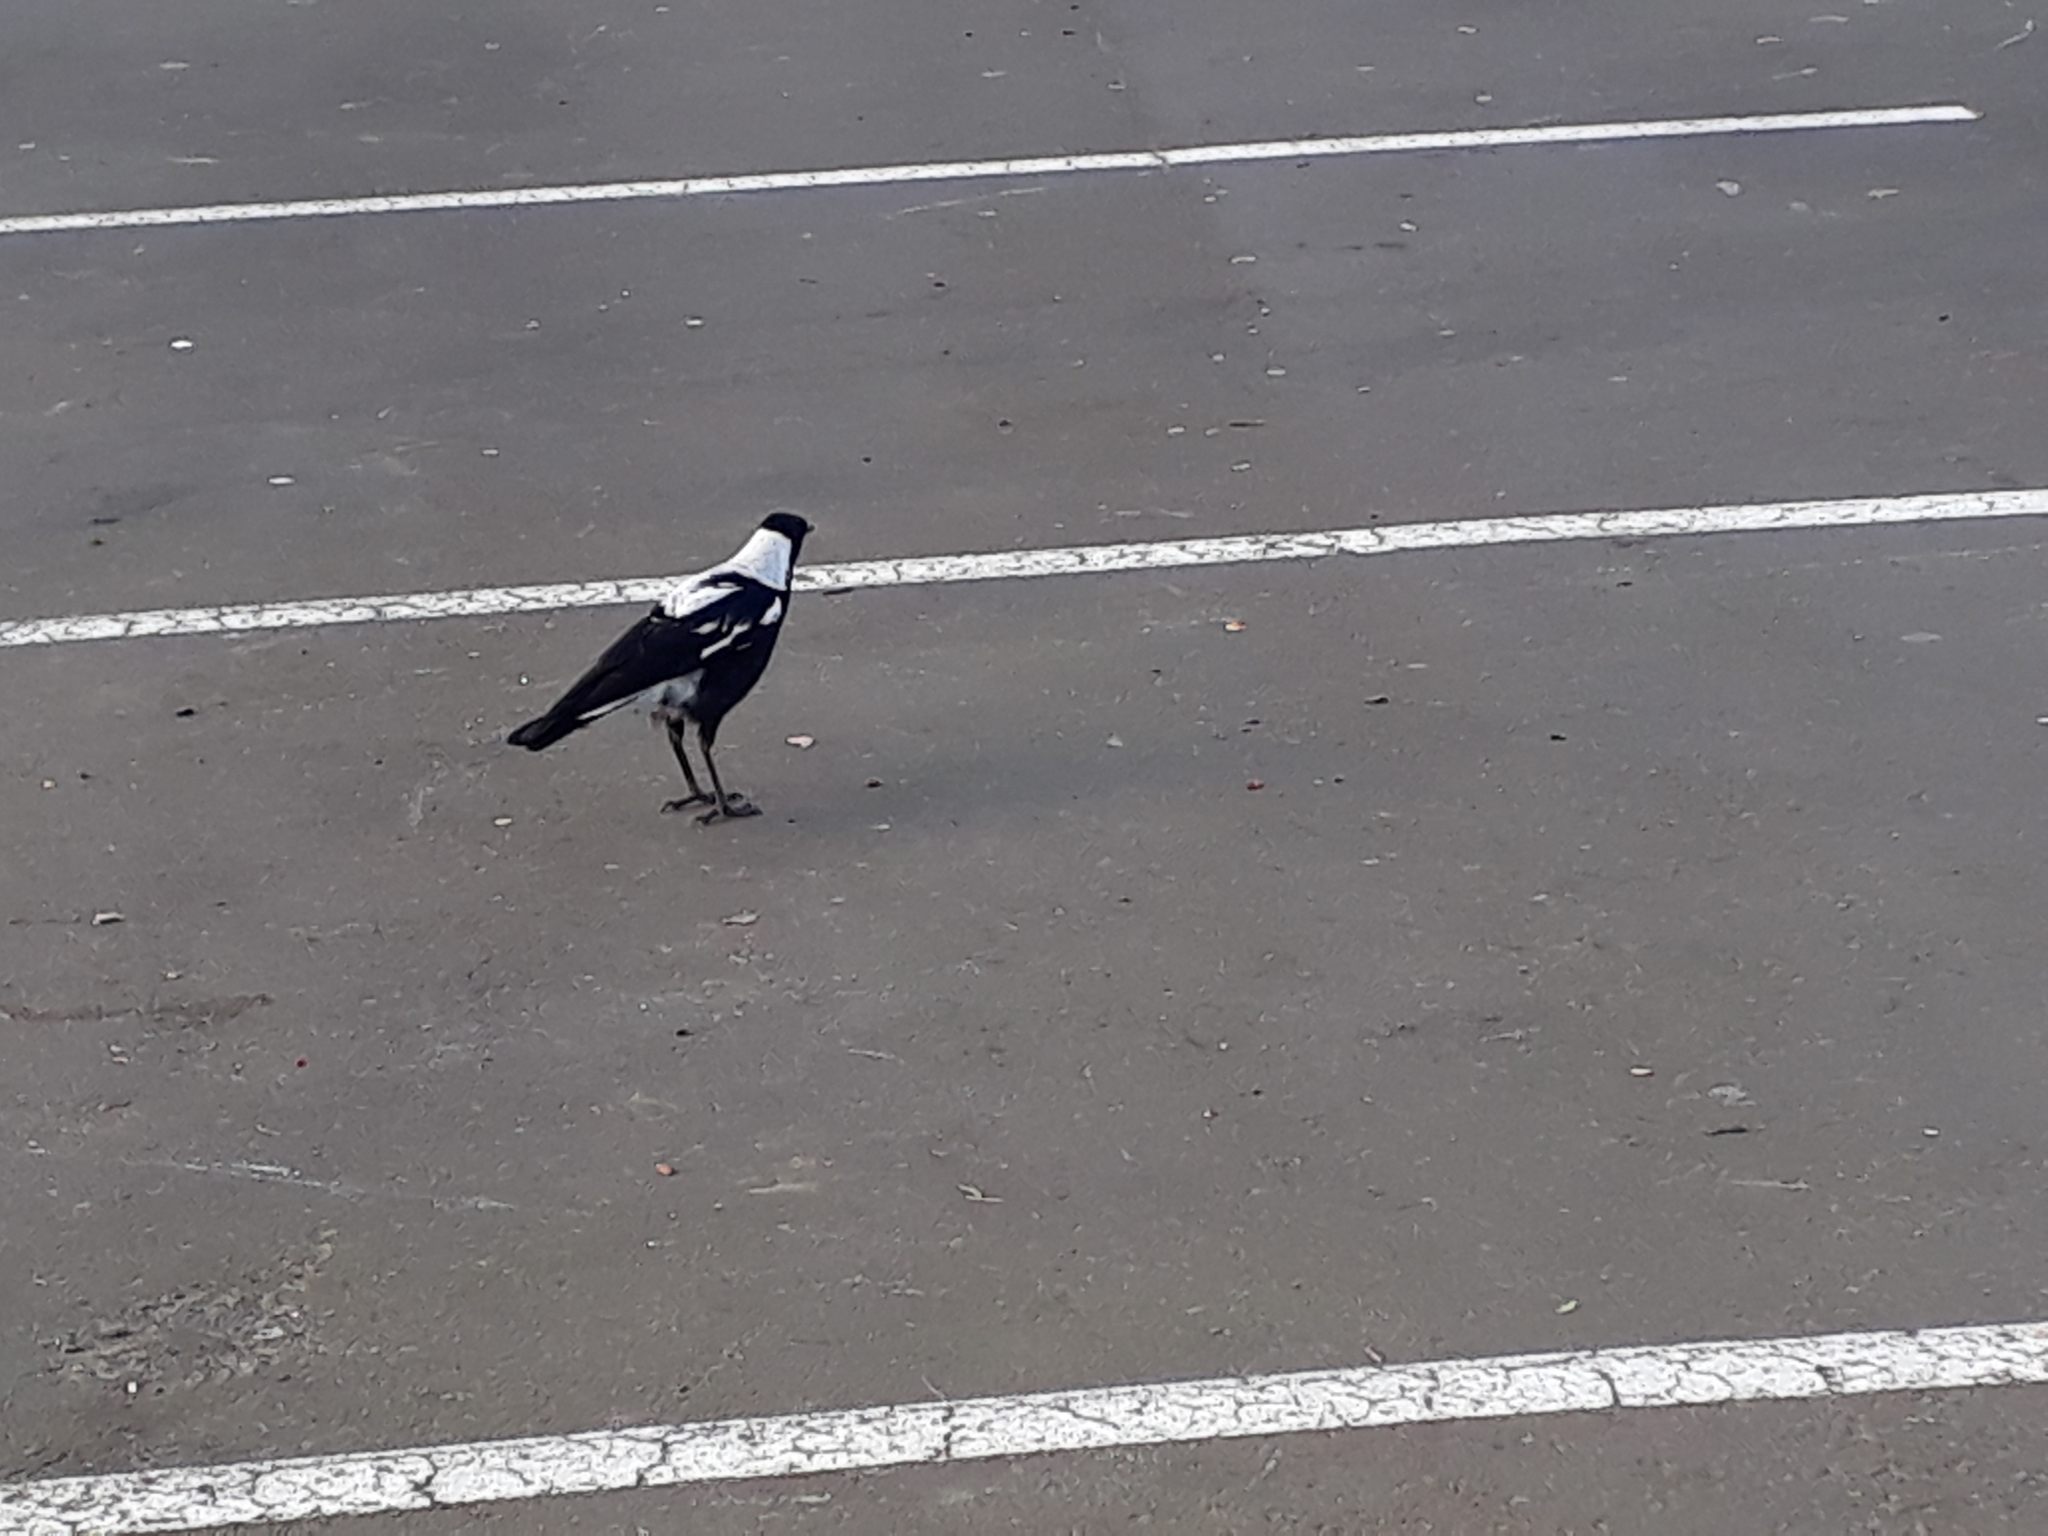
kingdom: Animalia
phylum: Chordata
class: Aves
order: Passeriformes
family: Cracticidae
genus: Gymnorhina
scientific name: Gymnorhina tibicen
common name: Australian magpie
